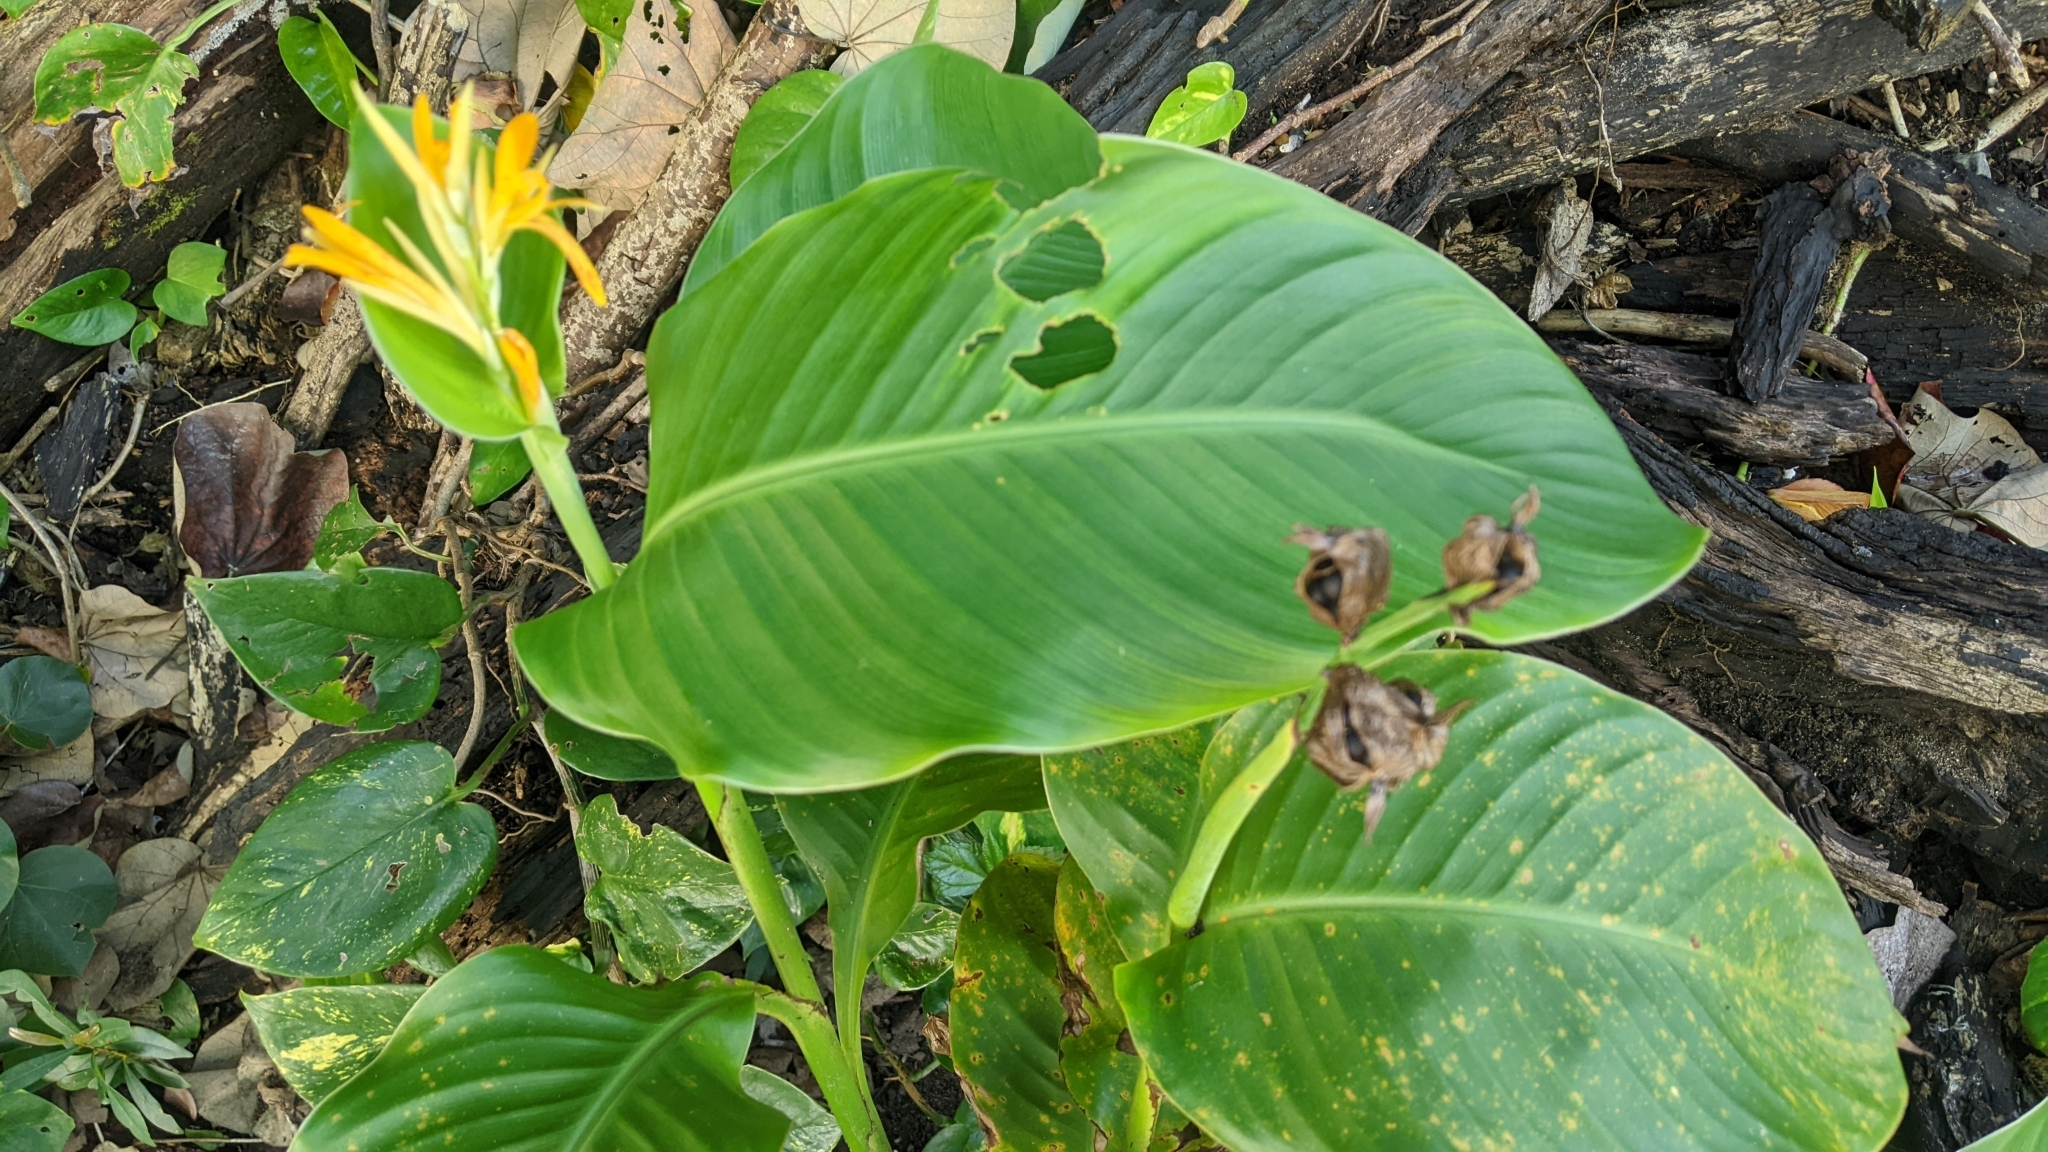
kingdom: Plantae
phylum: Tracheophyta
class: Liliopsida
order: Zingiberales
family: Cannaceae
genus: Canna
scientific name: Canna indica
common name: Indian shot
